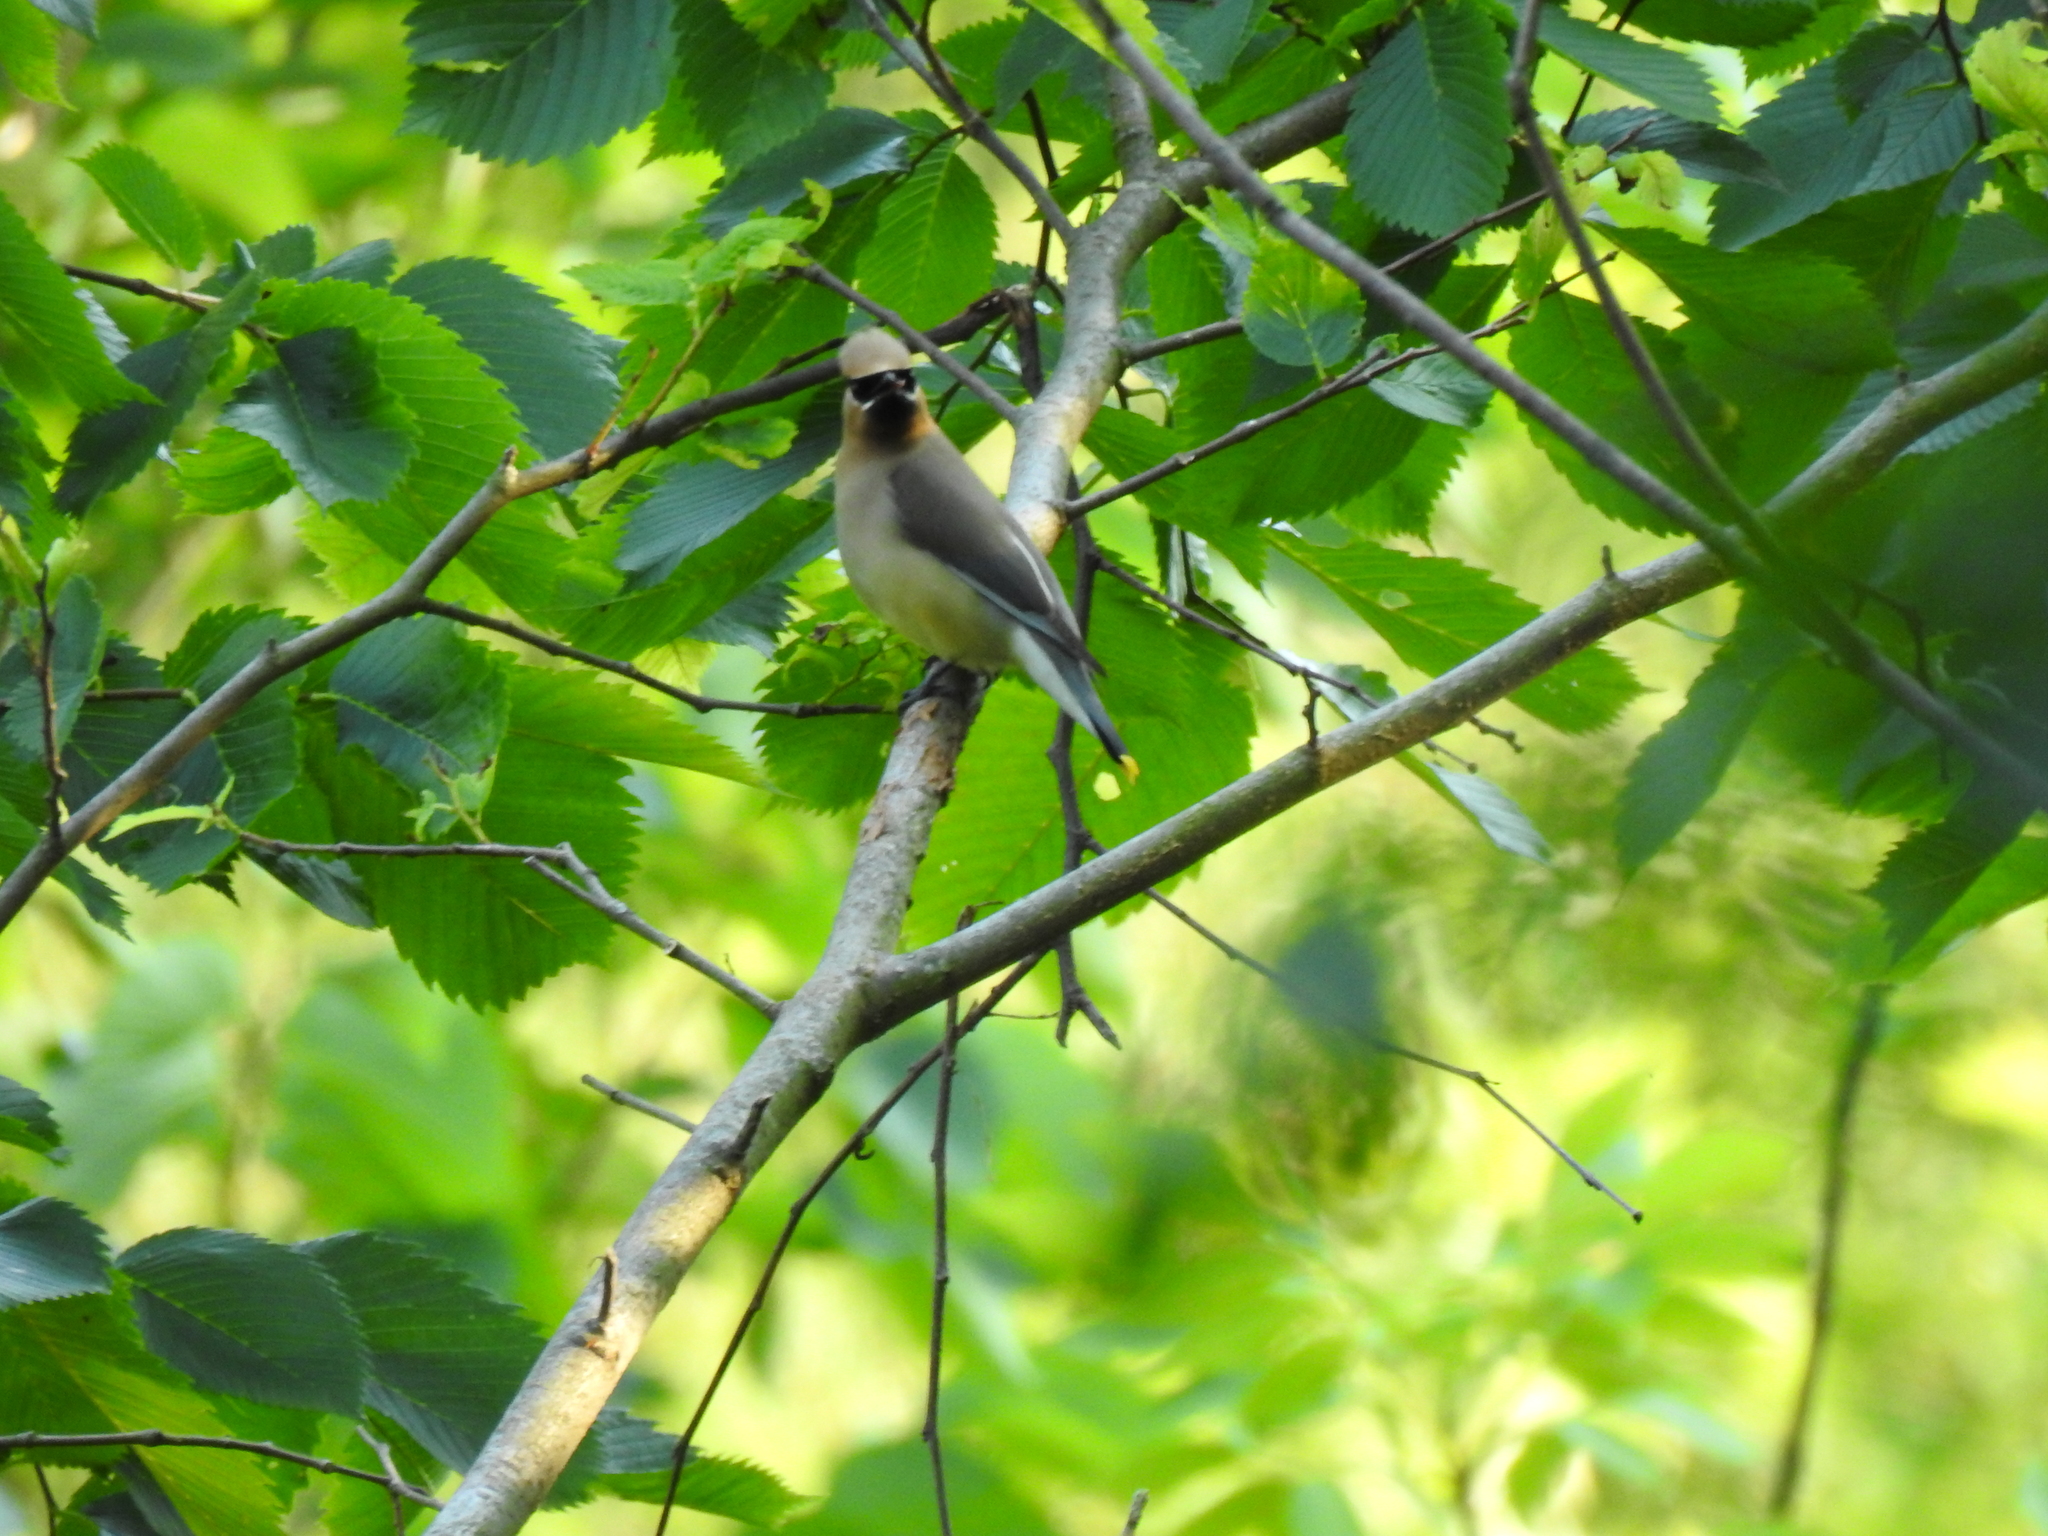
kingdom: Animalia
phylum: Chordata
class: Aves
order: Passeriformes
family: Bombycillidae
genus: Bombycilla
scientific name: Bombycilla cedrorum
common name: Cedar waxwing
